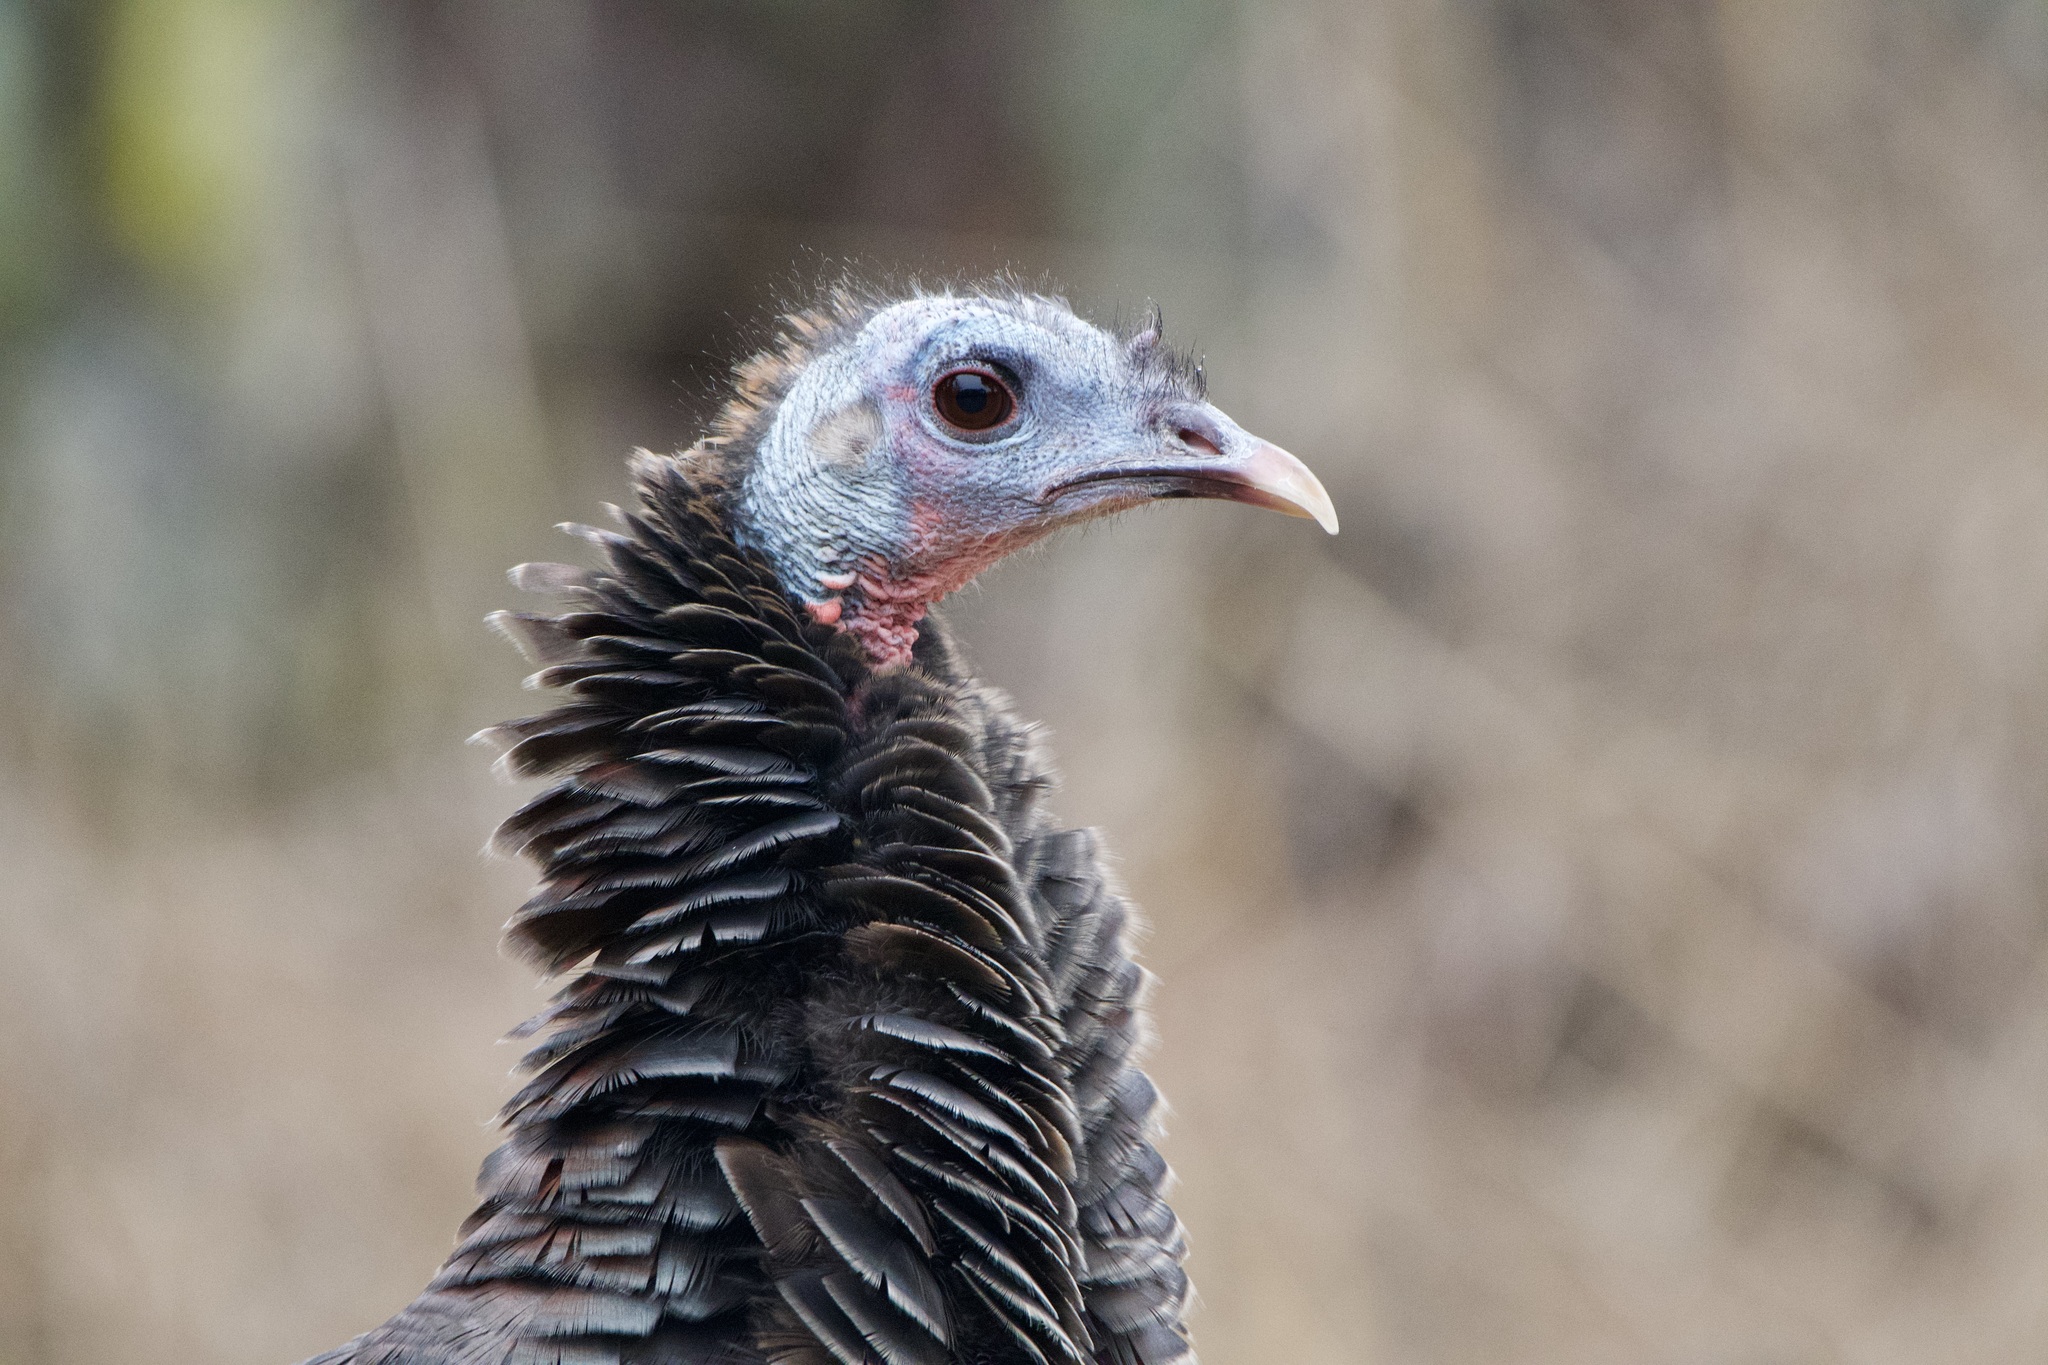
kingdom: Animalia
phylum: Chordata
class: Aves
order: Galliformes
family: Phasianidae
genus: Meleagris
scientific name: Meleagris gallopavo
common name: Wild turkey
